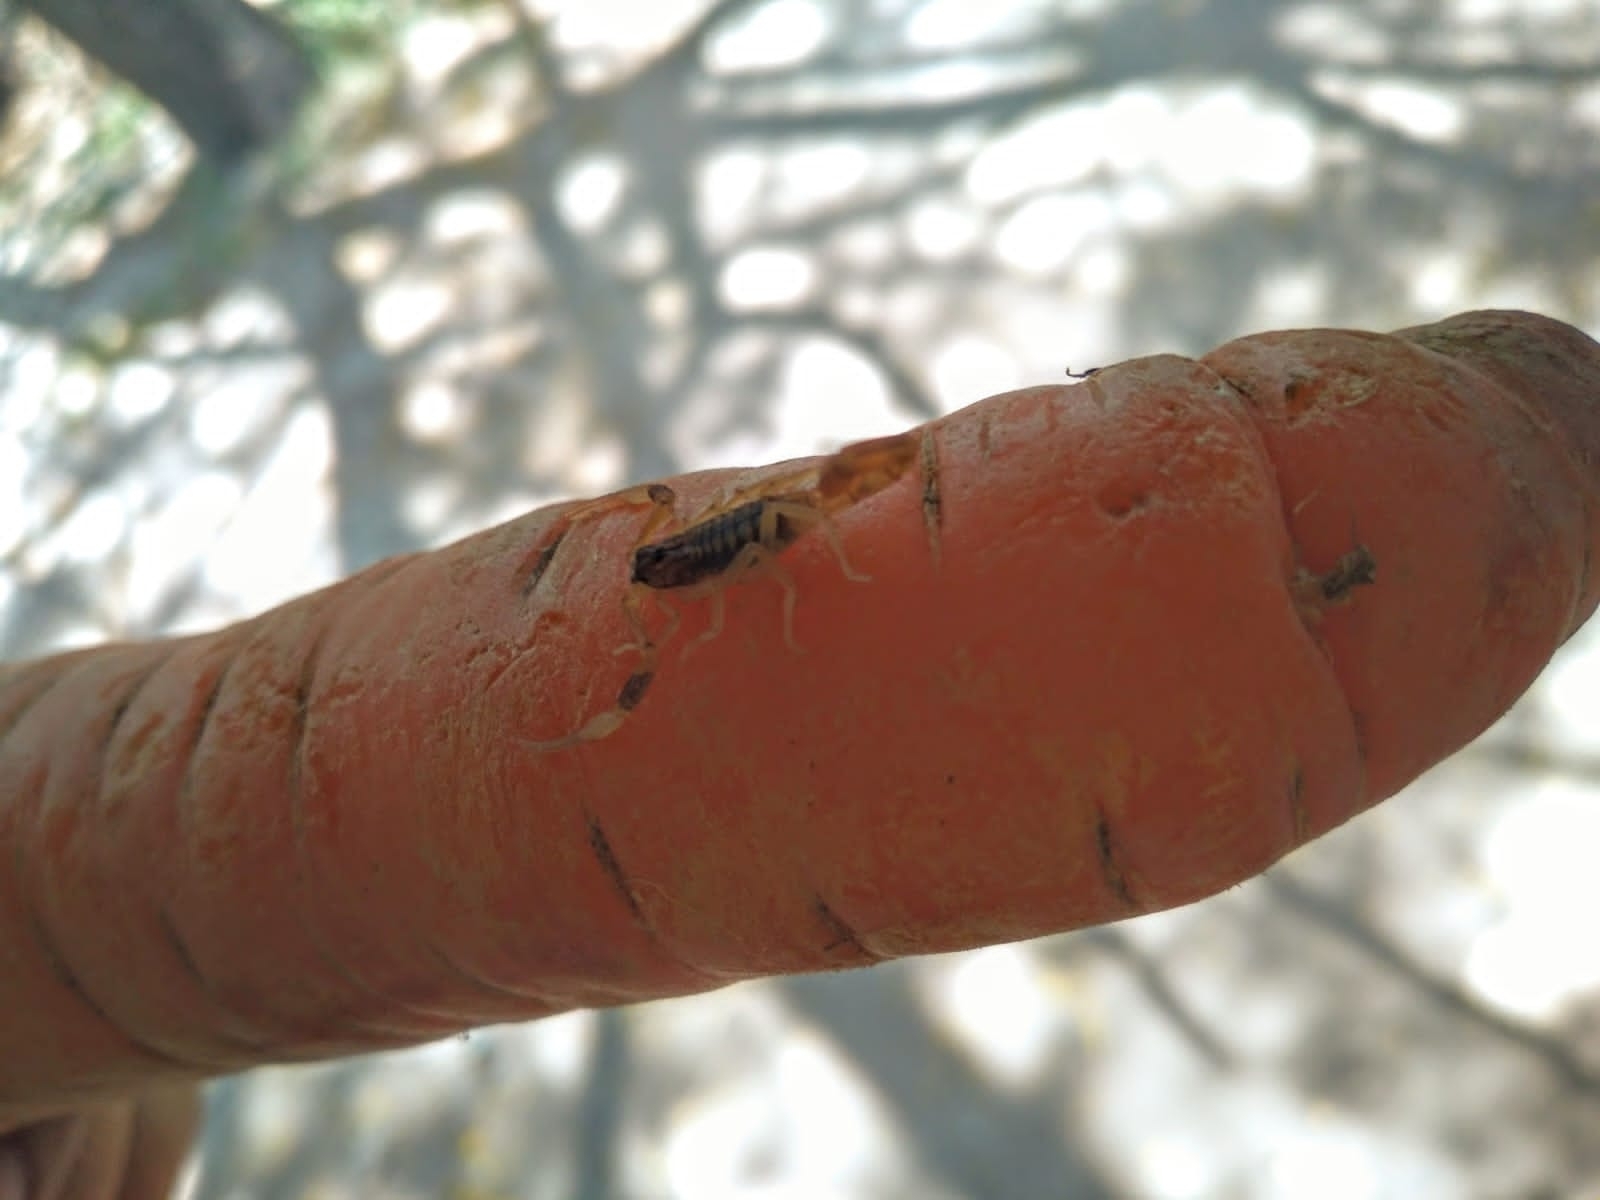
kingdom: Animalia
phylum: Arthropoda
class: Arachnida
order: Scorpiones
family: Buthidae
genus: Tityus
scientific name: Tityus carrilloi
